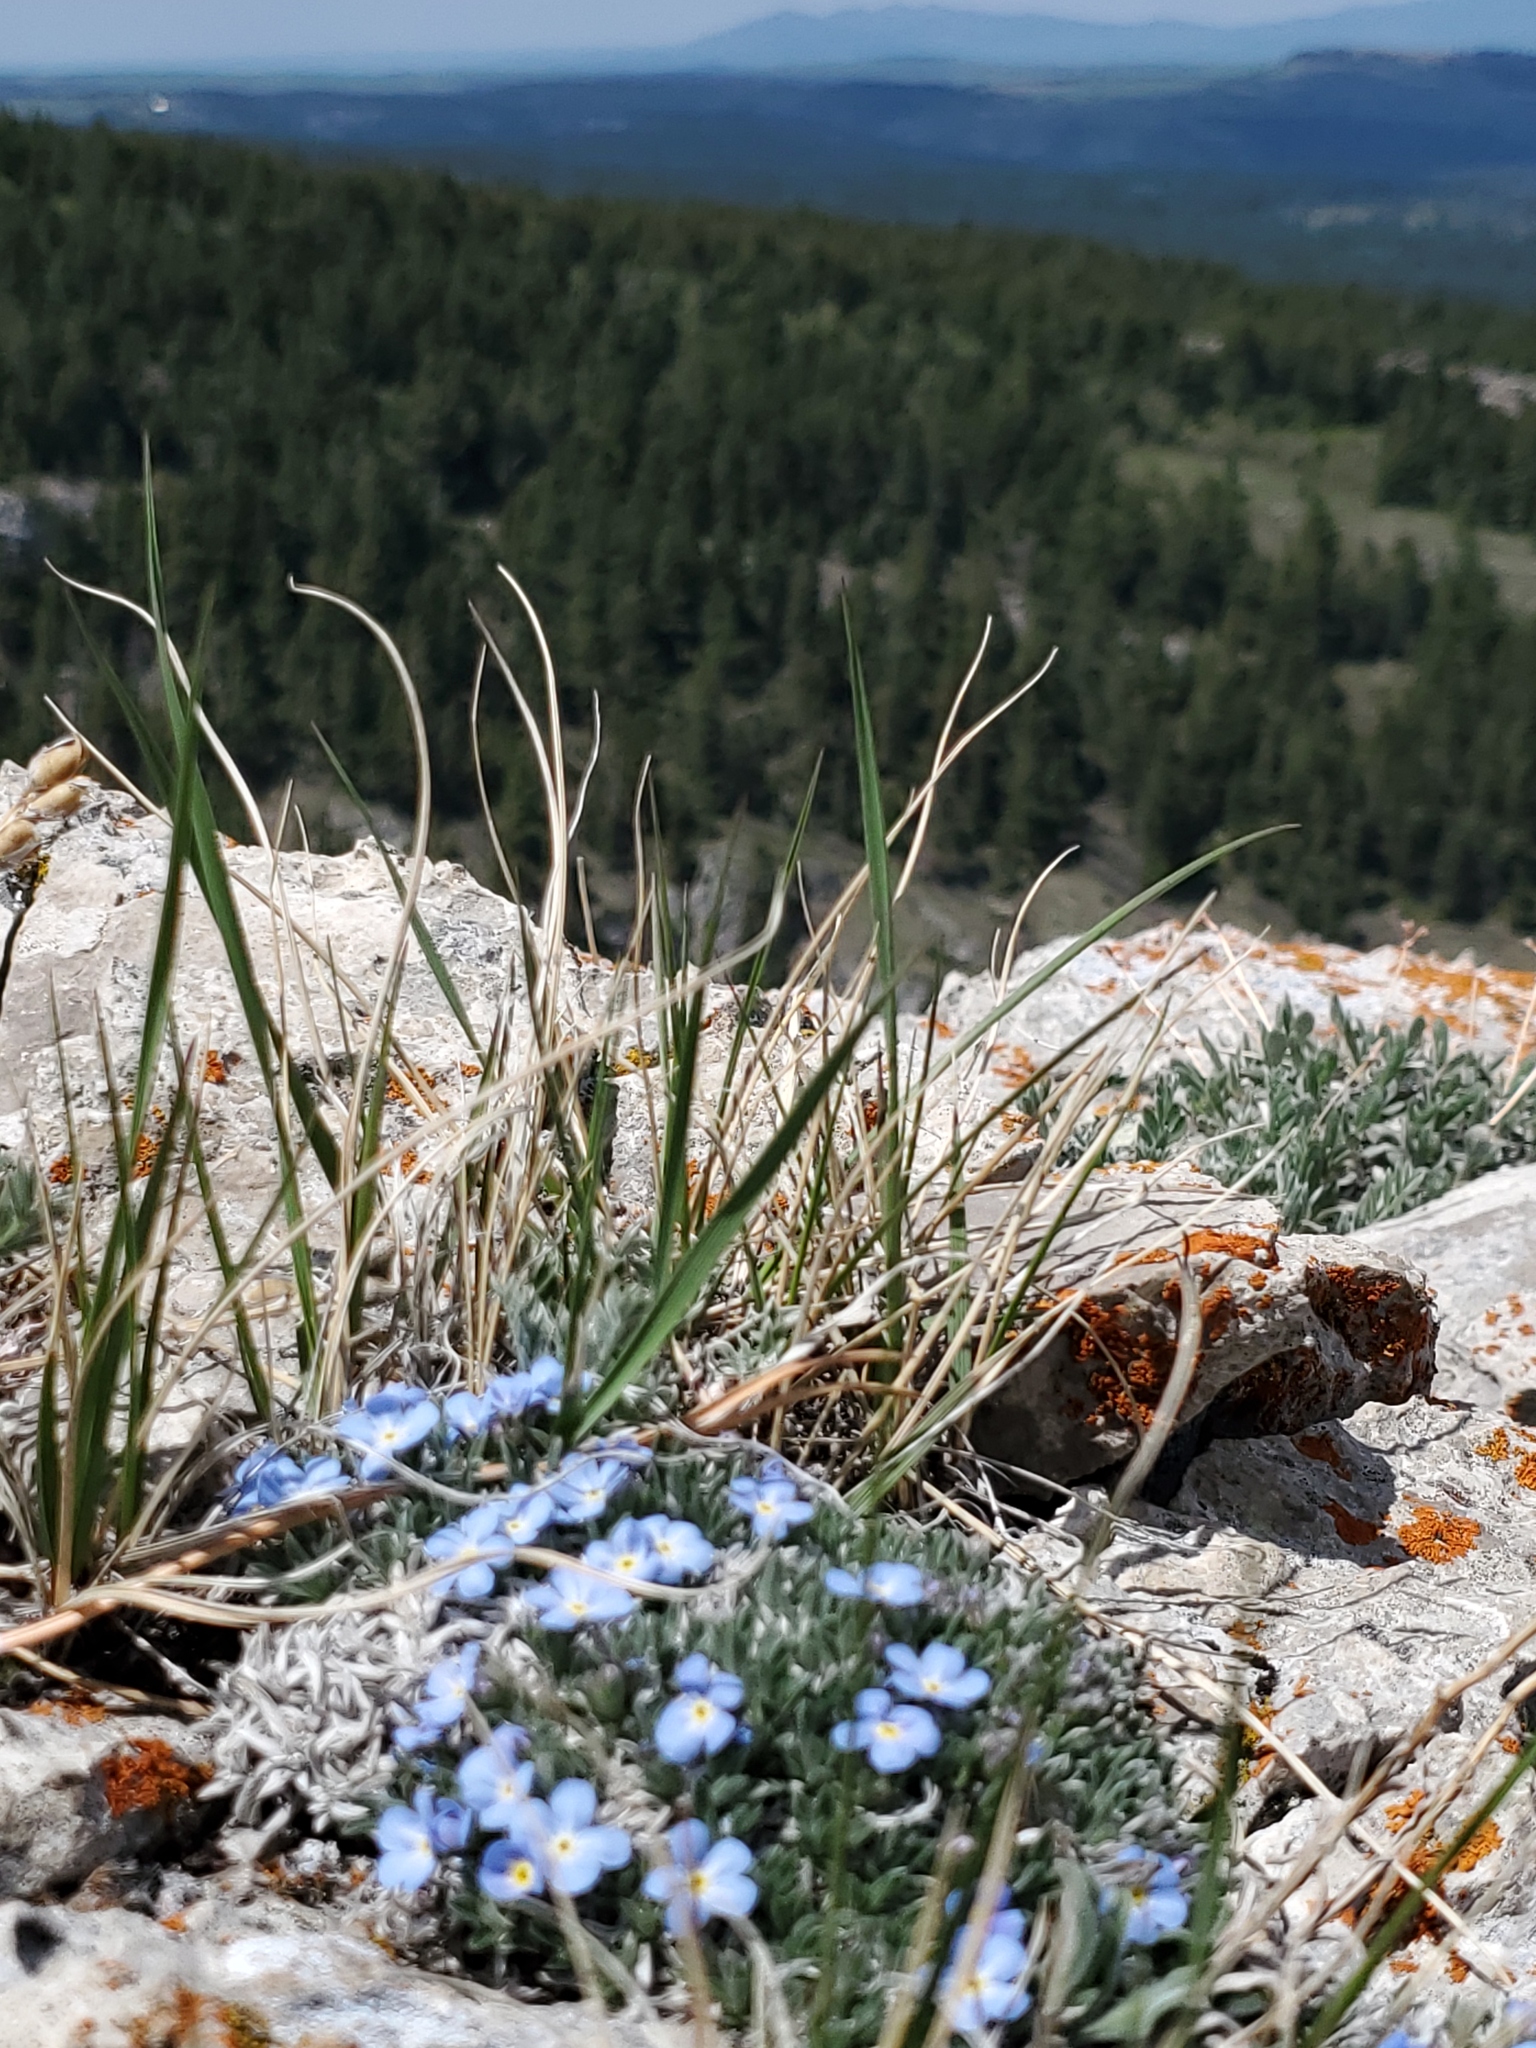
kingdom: Plantae
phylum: Tracheophyta
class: Magnoliopsida
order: Boraginales
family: Boraginaceae
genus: Eritrichium
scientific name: Eritrichium howardii
